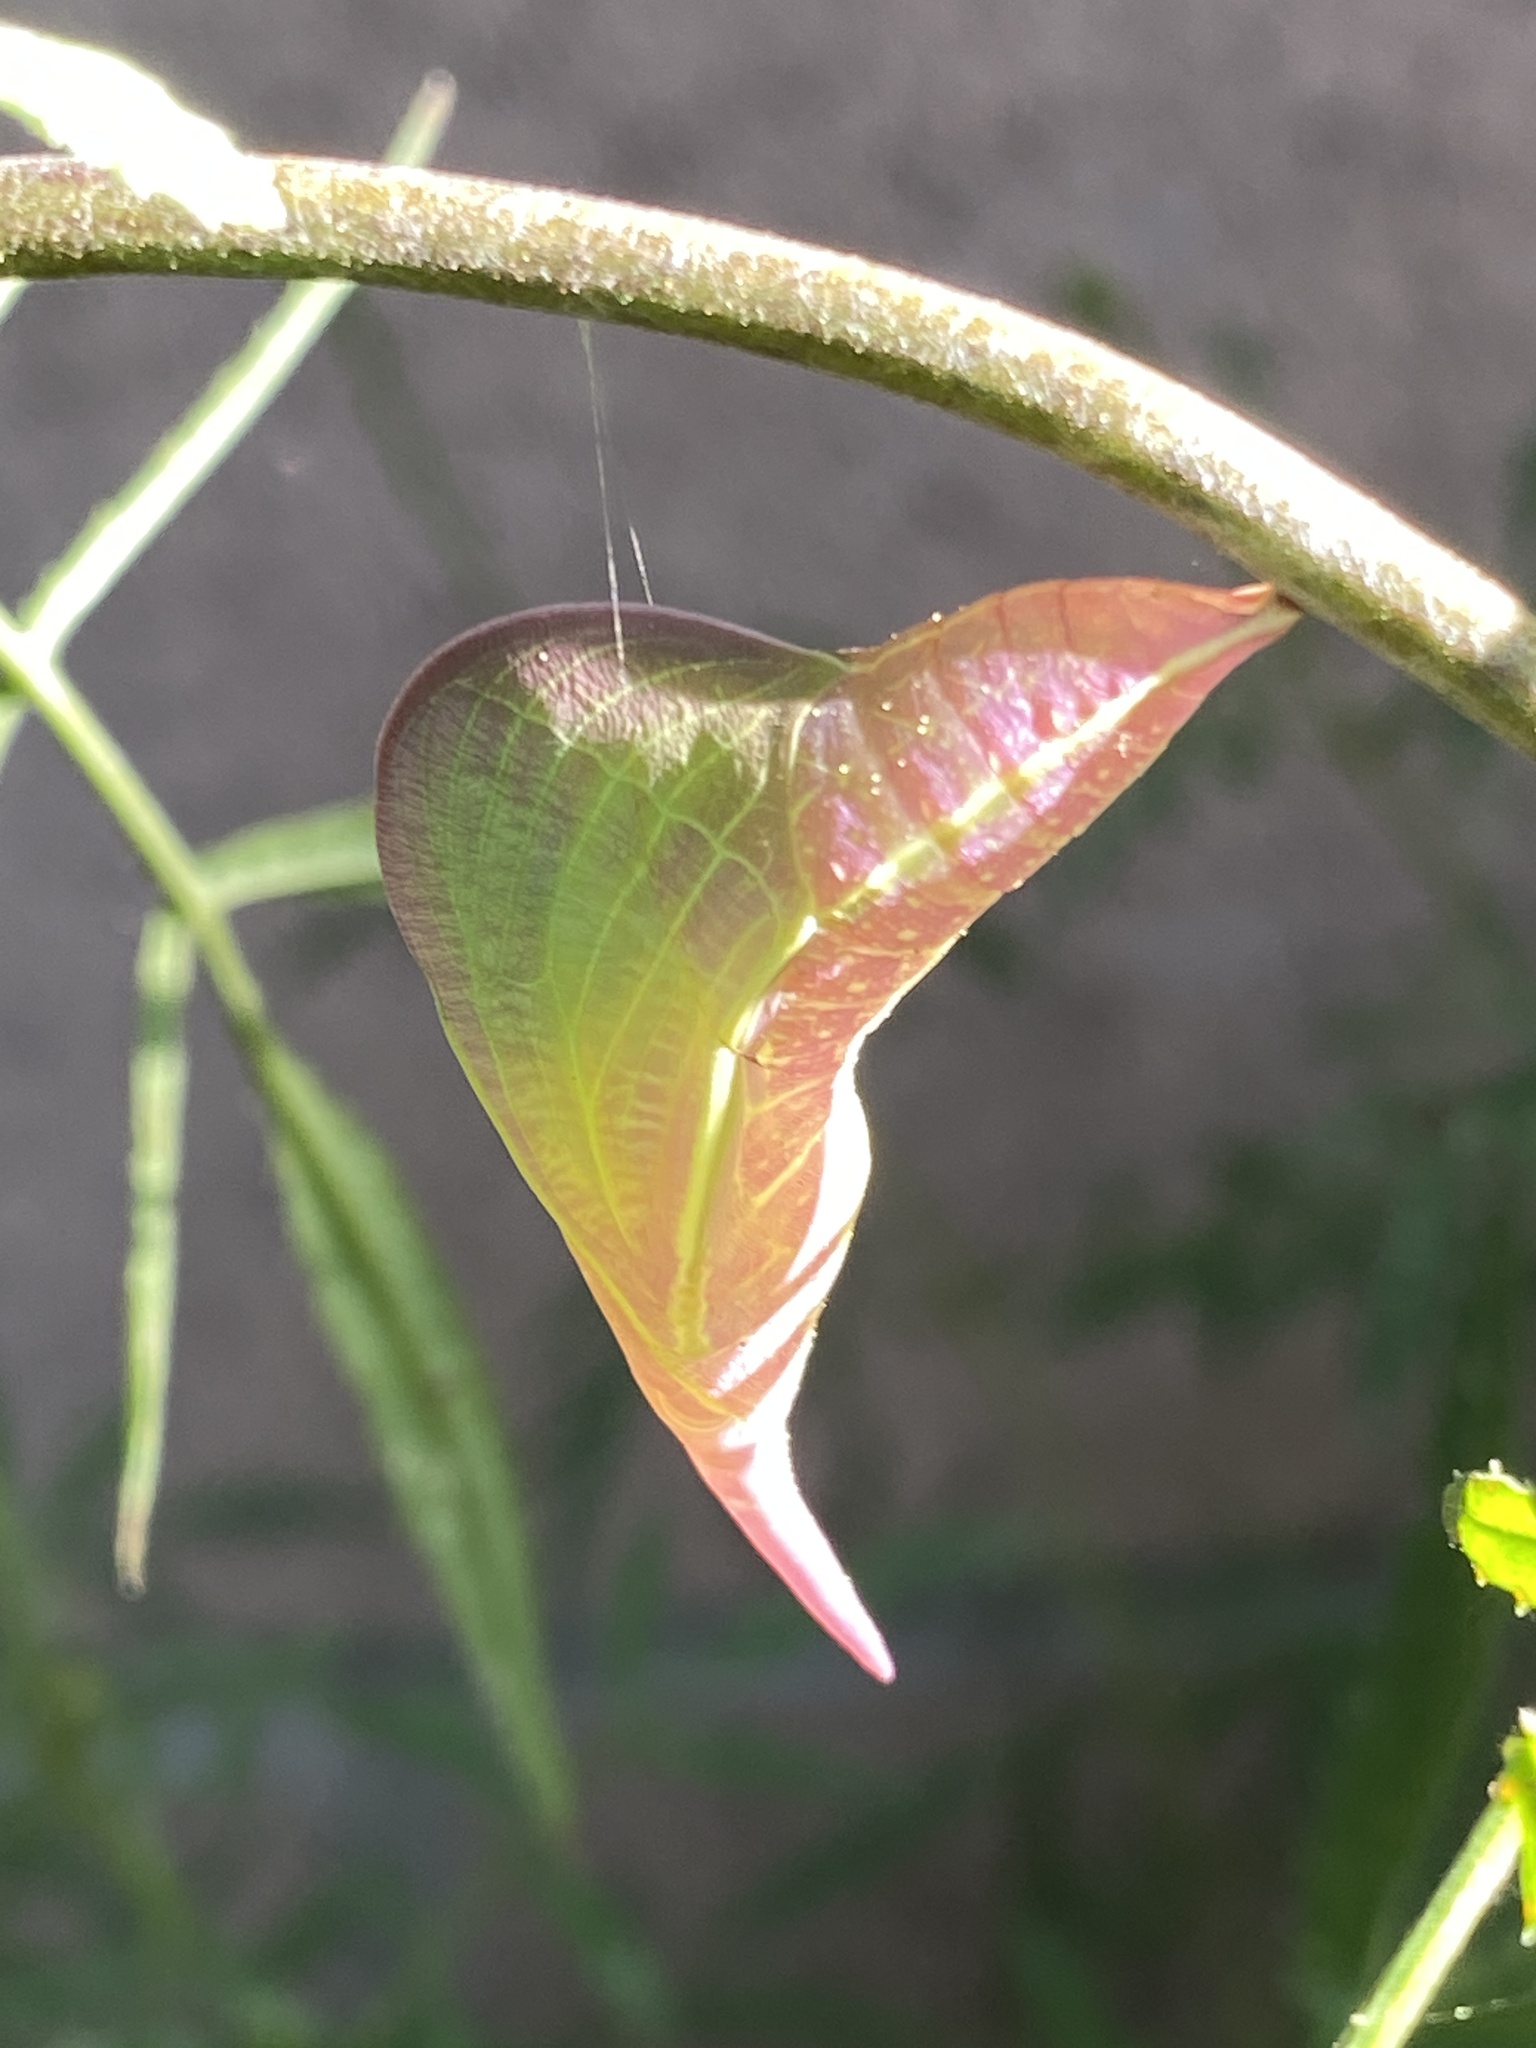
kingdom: Animalia
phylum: Arthropoda
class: Insecta
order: Lepidoptera
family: Pieridae
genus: Phoebis
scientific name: Phoebis sennae
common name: Cloudless sulphur
